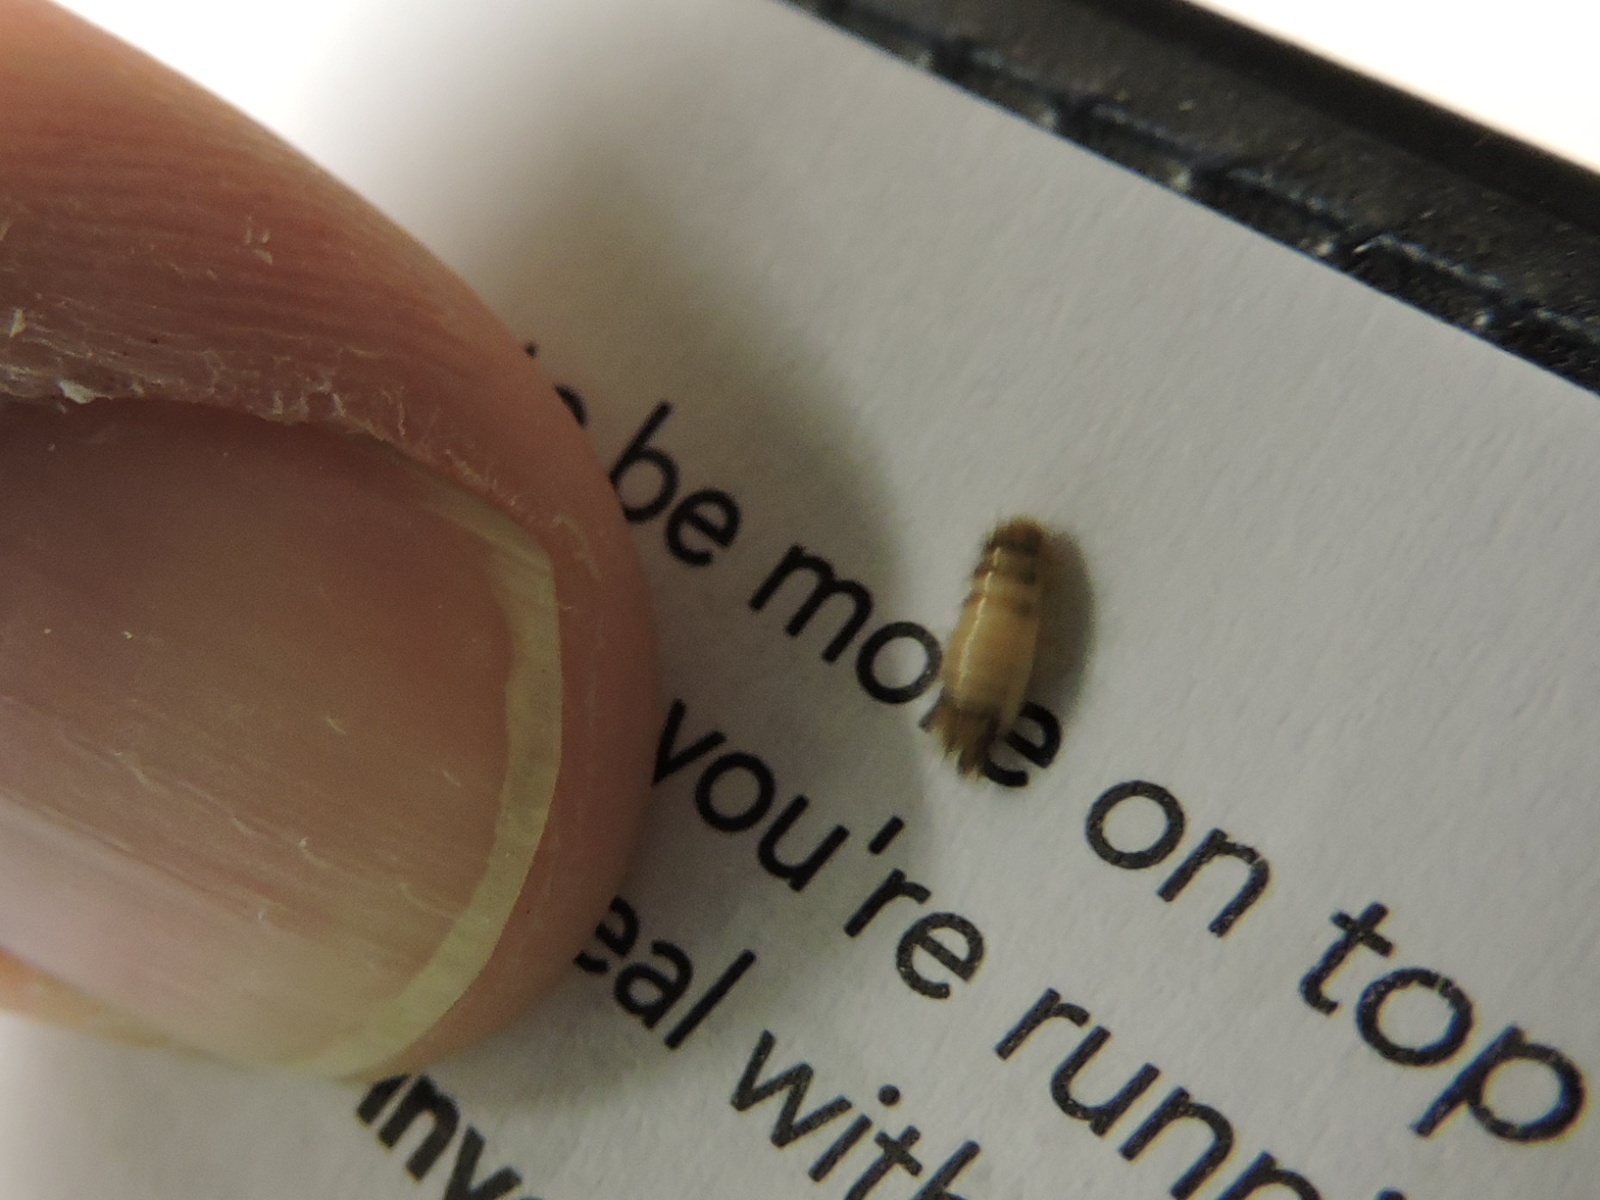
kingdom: Animalia
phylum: Arthropoda
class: Insecta
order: Coleoptera
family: Dermestidae
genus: Anthrenus
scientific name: Anthrenus verbasci
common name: Varied carpet beetle
